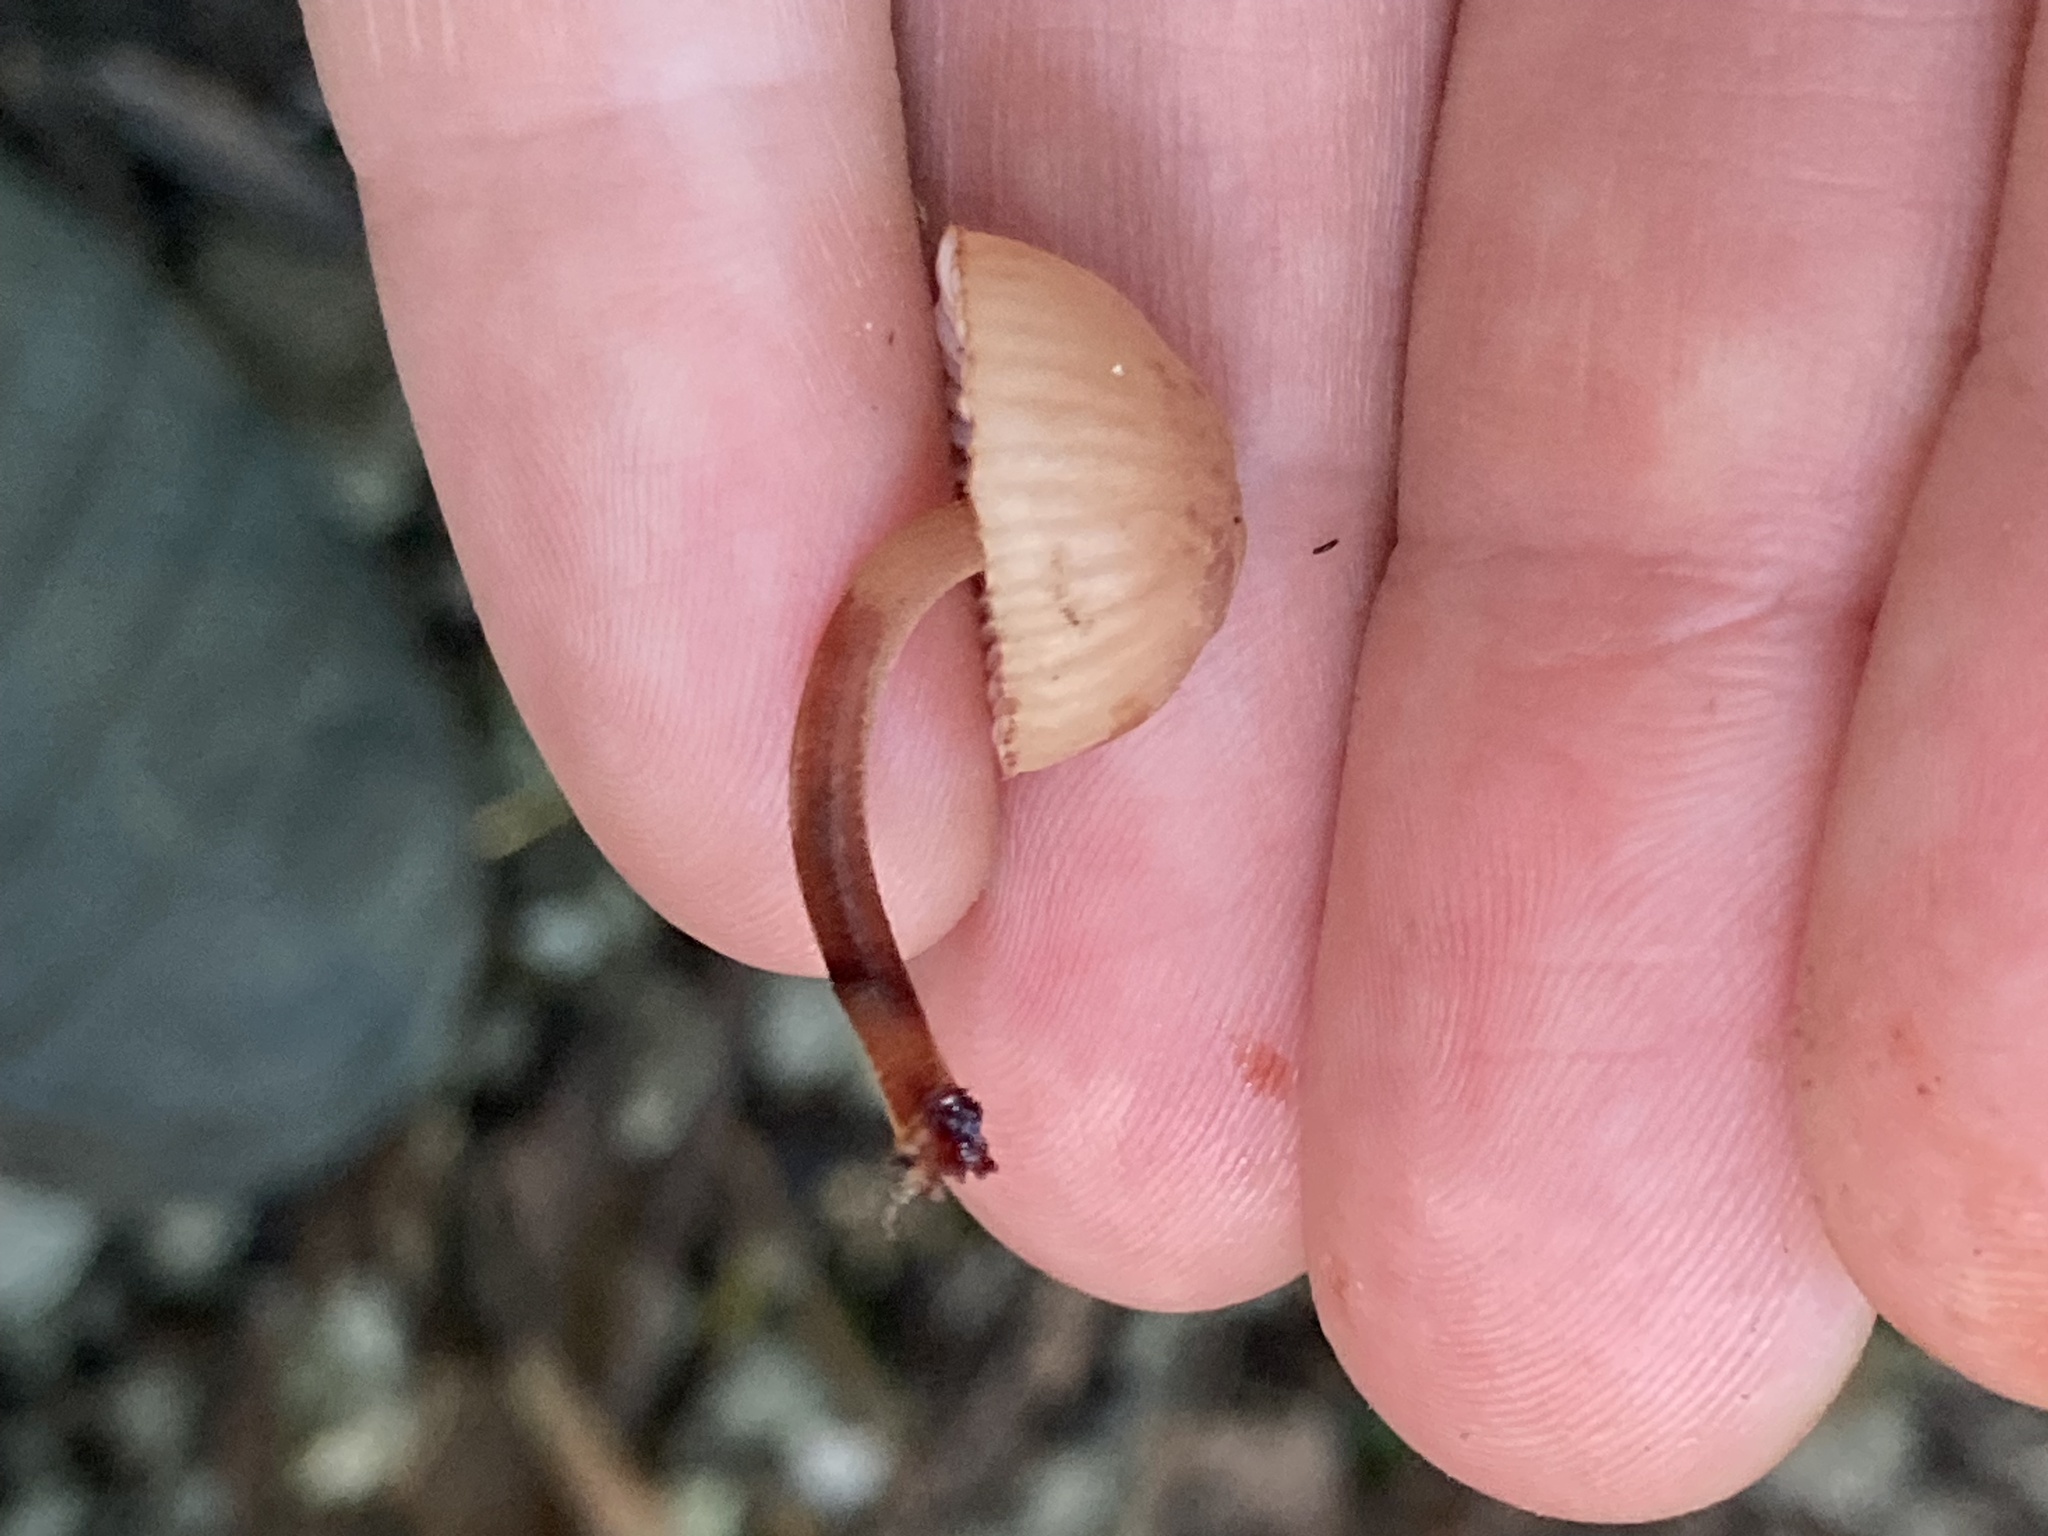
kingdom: Fungi
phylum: Basidiomycota
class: Agaricomycetes
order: Agaricales
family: Mycenaceae
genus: Mycena
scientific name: Mycena parsonsii
